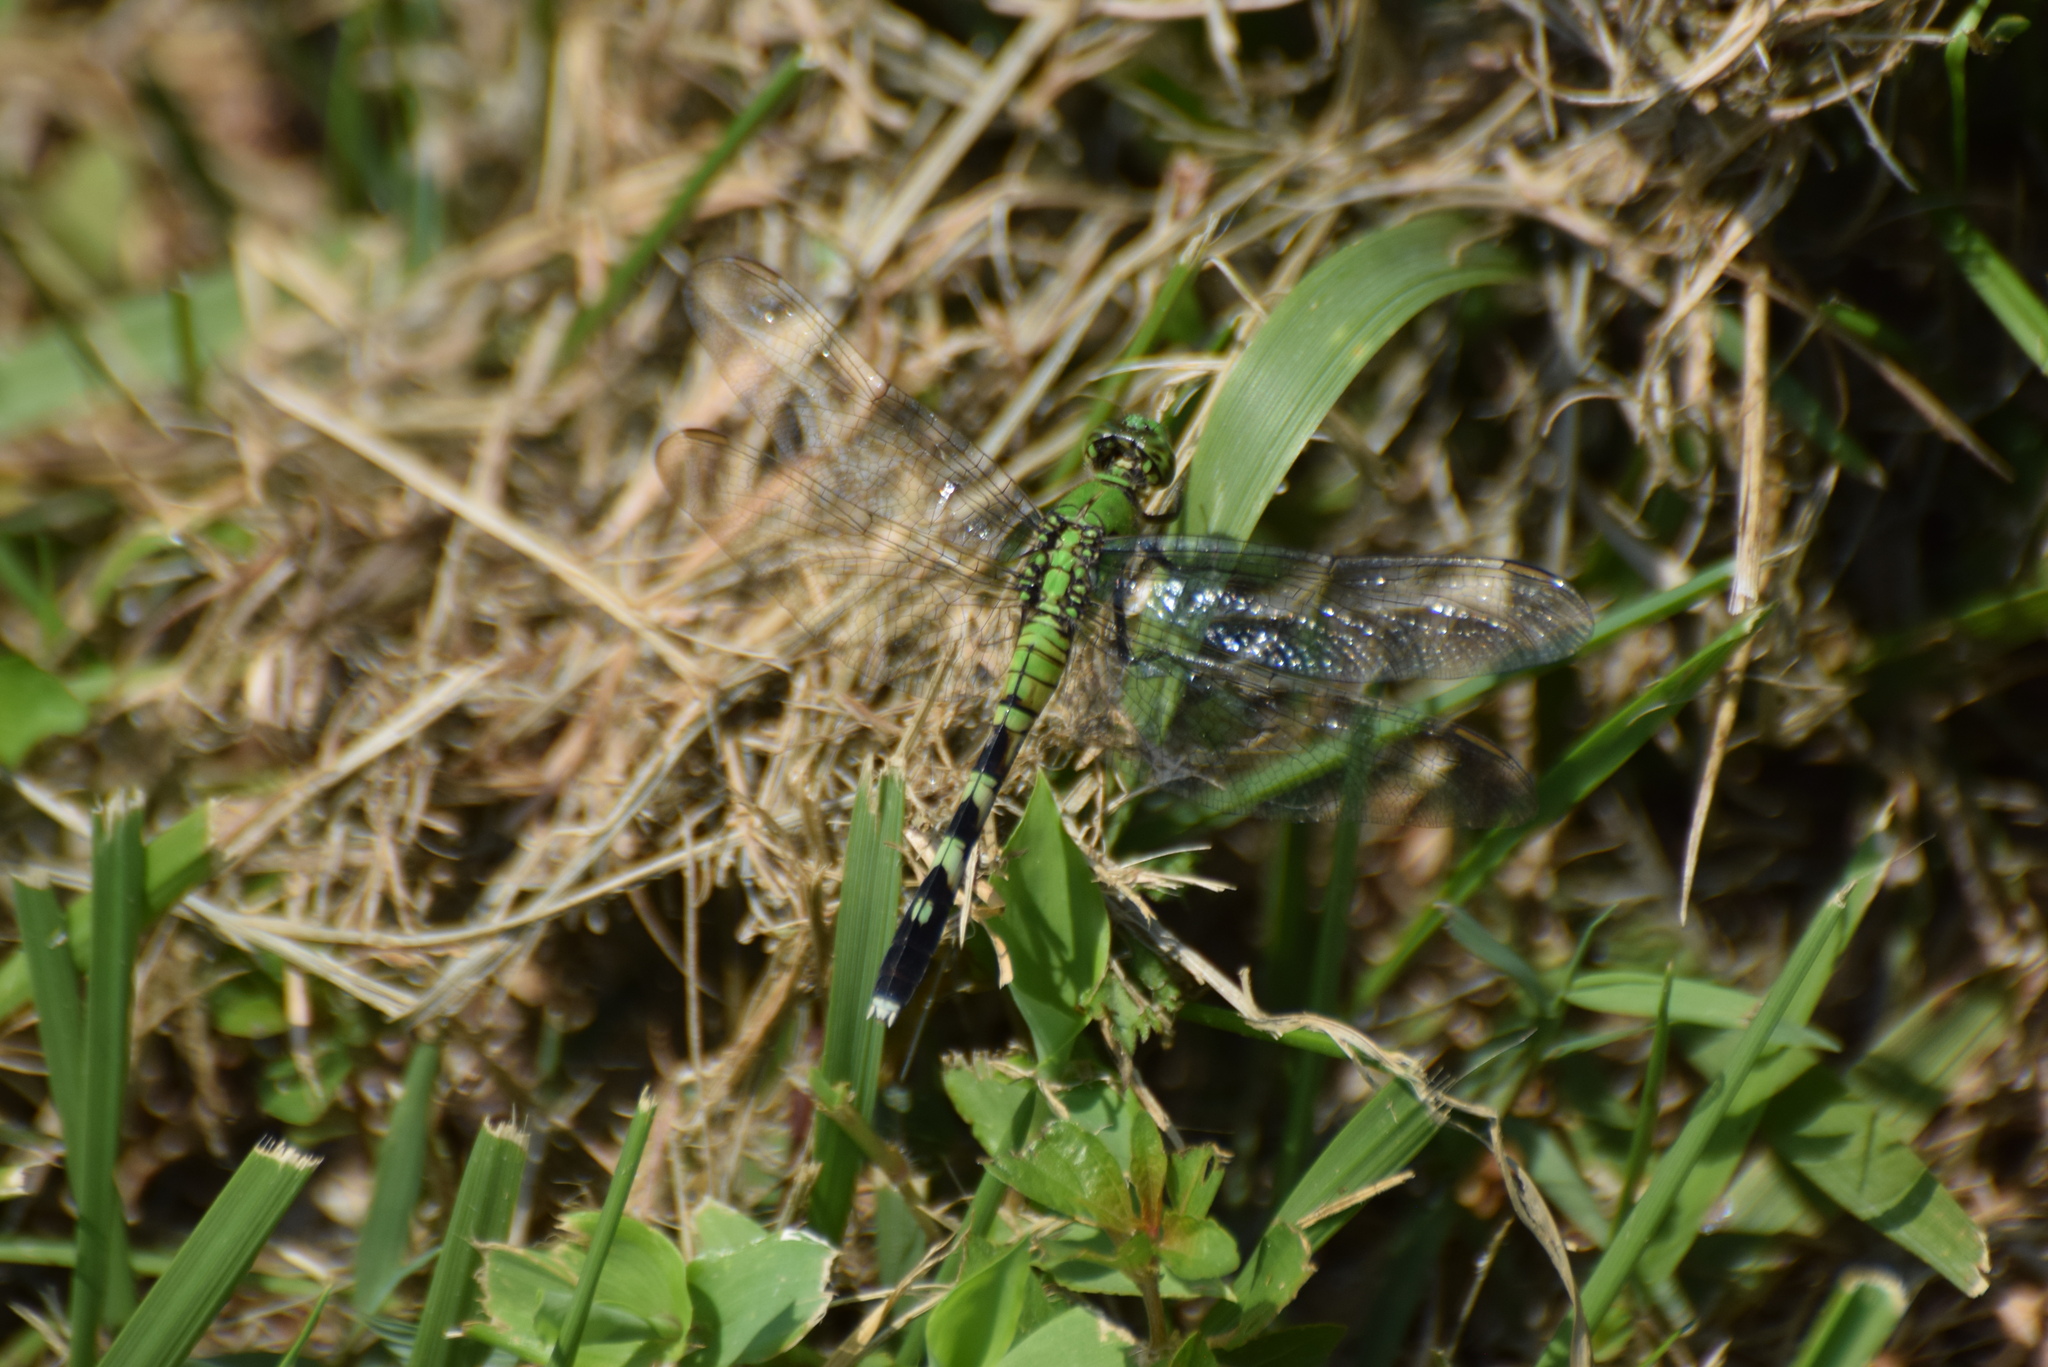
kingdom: Animalia
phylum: Arthropoda
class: Insecta
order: Odonata
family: Libellulidae
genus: Erythemis
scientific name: Erythemis simplicicollis
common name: Eastern pondhawk
